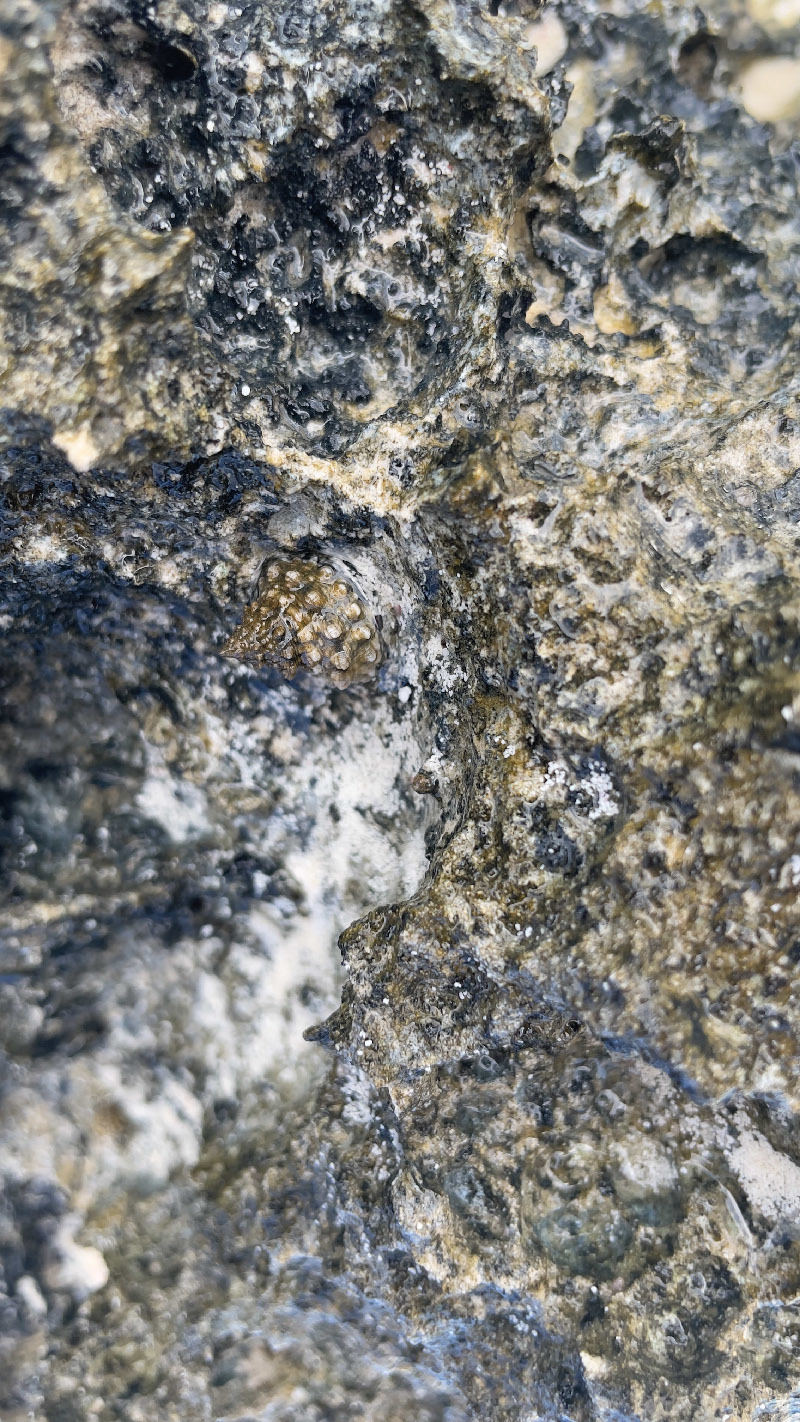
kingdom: Animalia
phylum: Mollusca
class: Gastropoda
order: Littorinimorpha
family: Littorinidae
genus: Echinolittorina
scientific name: Echinolittorina tuberculata
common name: Common periwinkle
